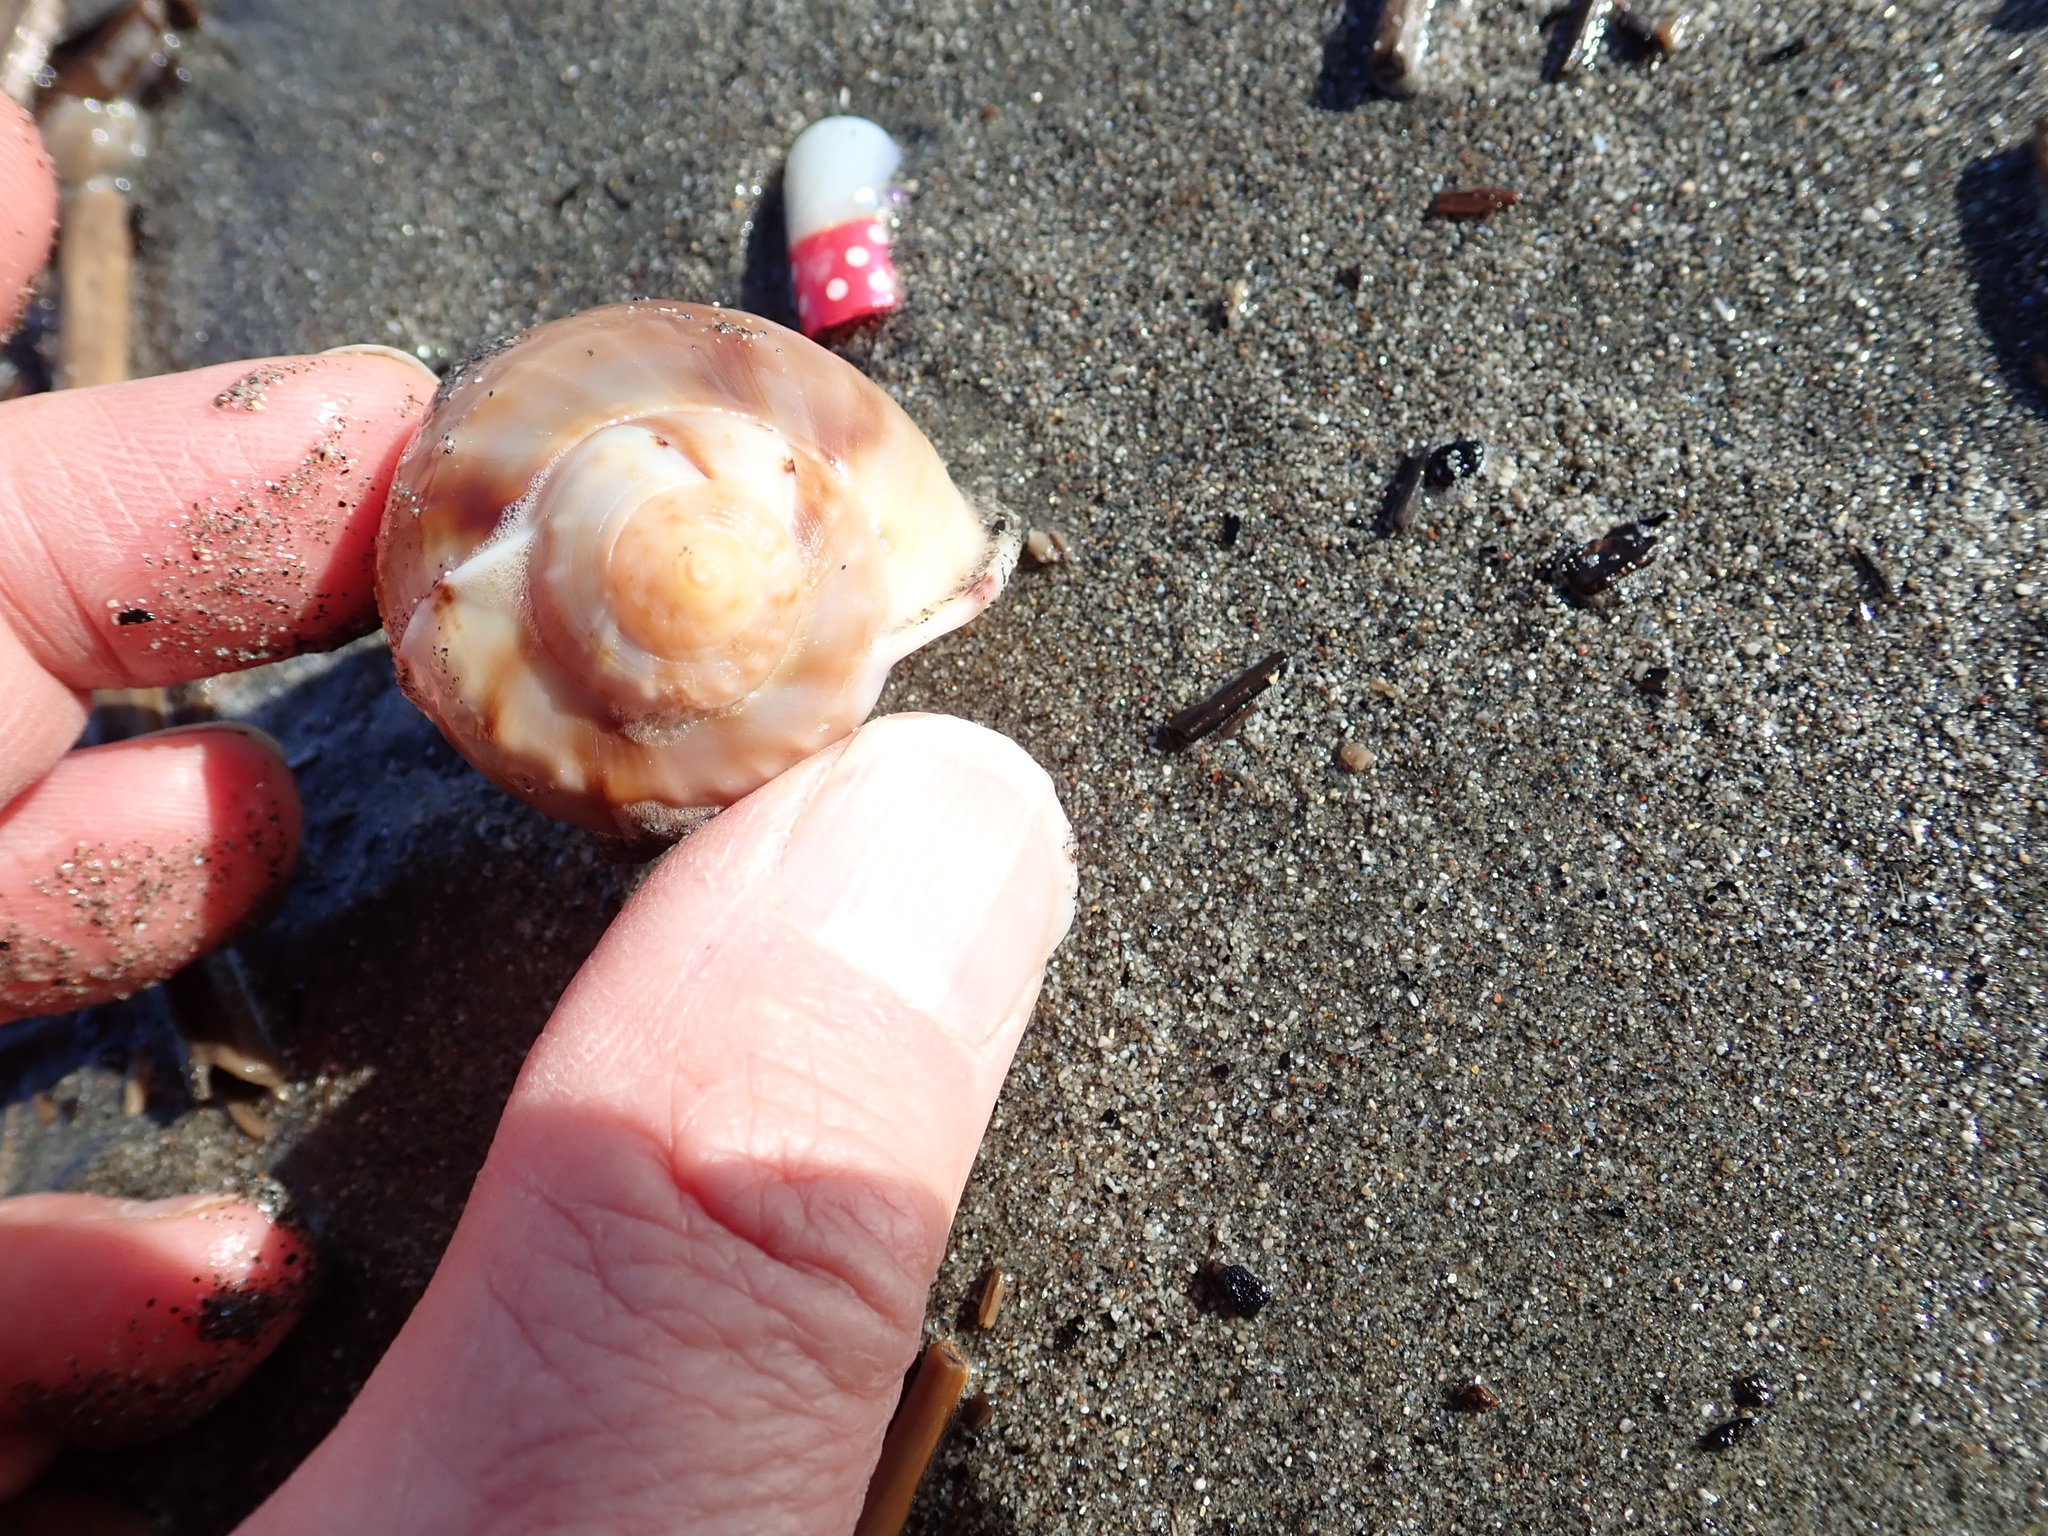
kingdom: Animalia
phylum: Mollusca
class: Gastropoda
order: Littorinimorpha
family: Cassidae
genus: Semicassis
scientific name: Semicassis pyrum
